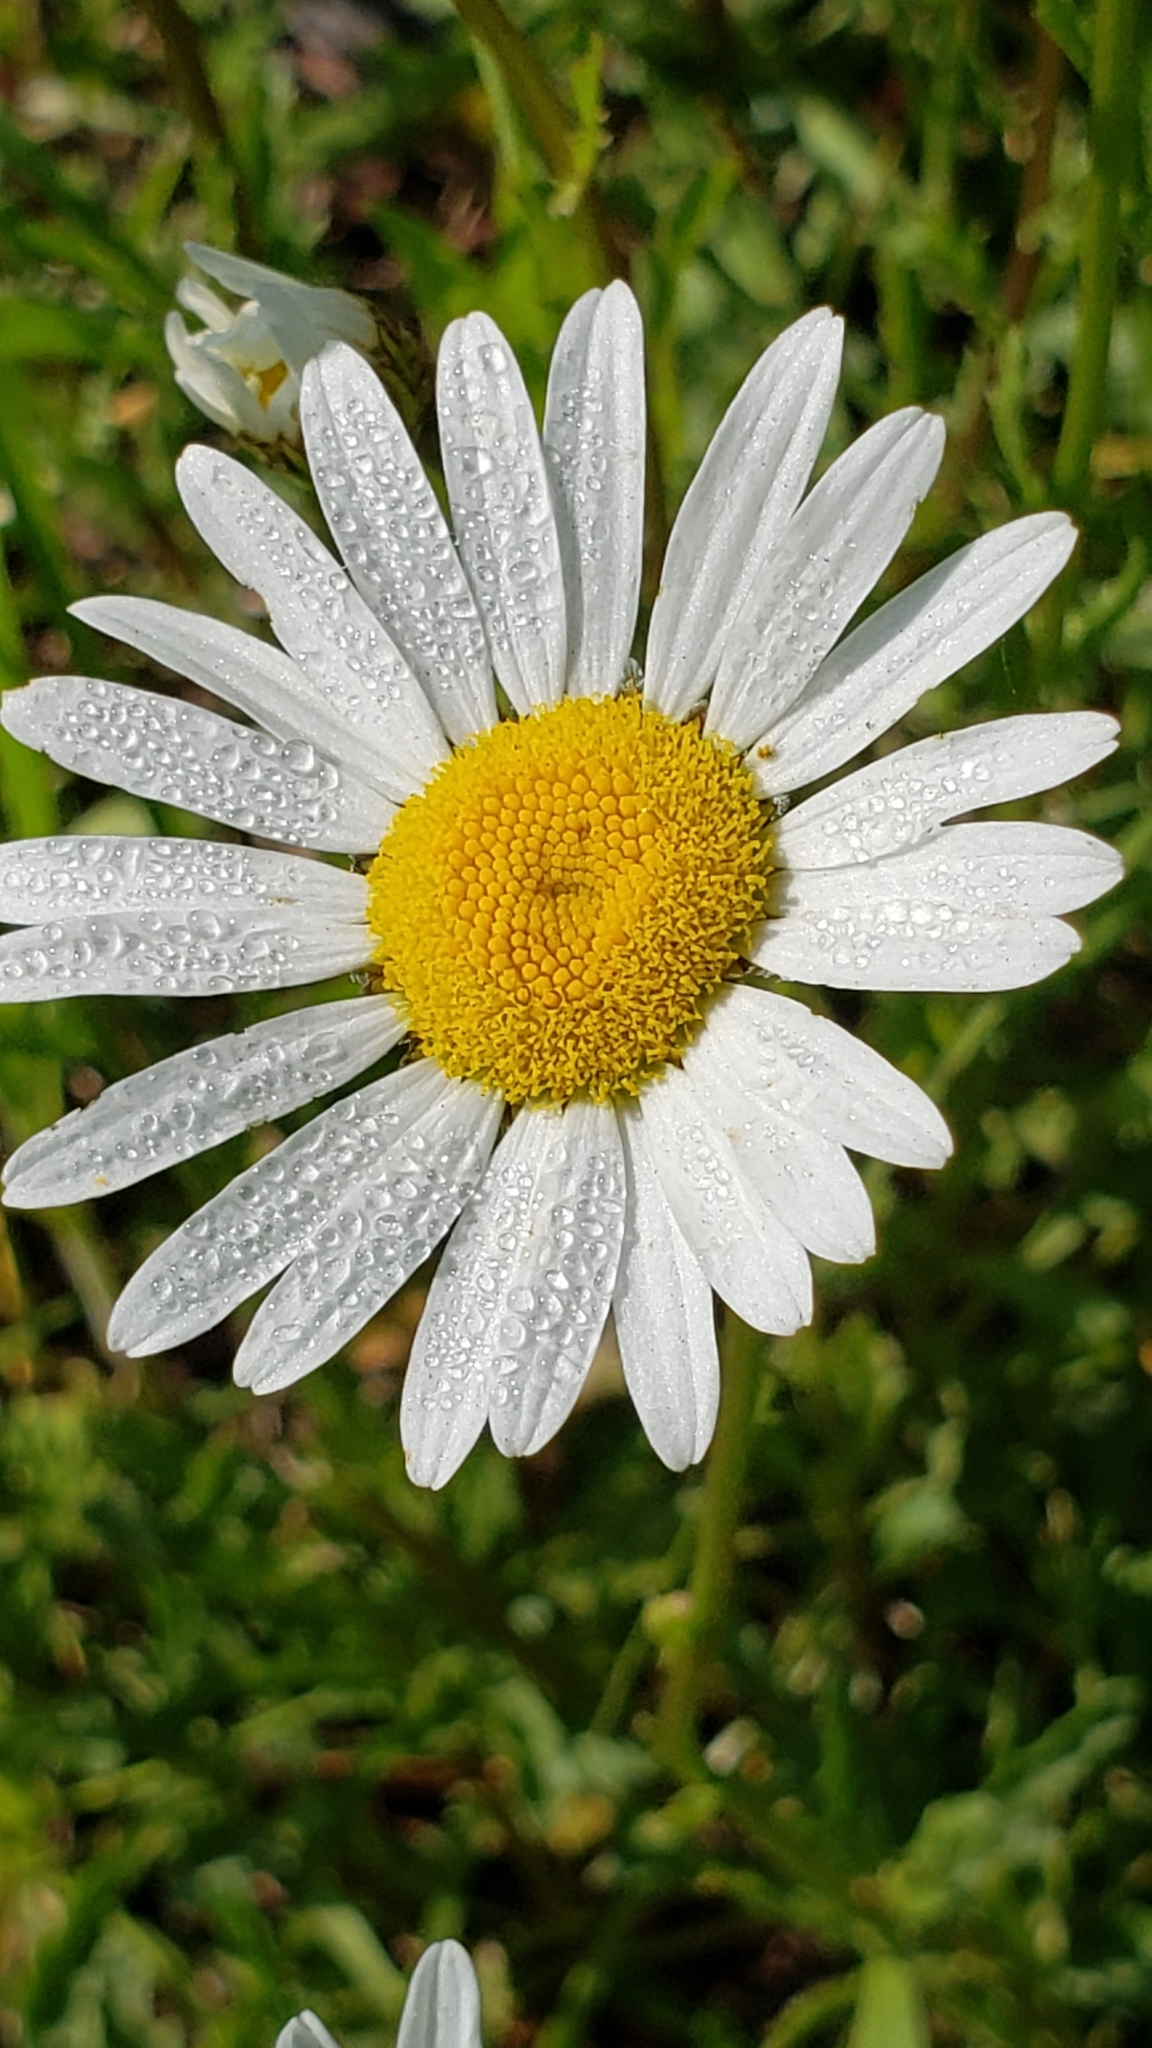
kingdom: Plantae
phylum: Tracheophyta
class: Magnoliopsida
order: Asterales
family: Asteraceae
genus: Leucanthemum
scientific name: Leucanthemum vulgare
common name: Oxeye daisy
